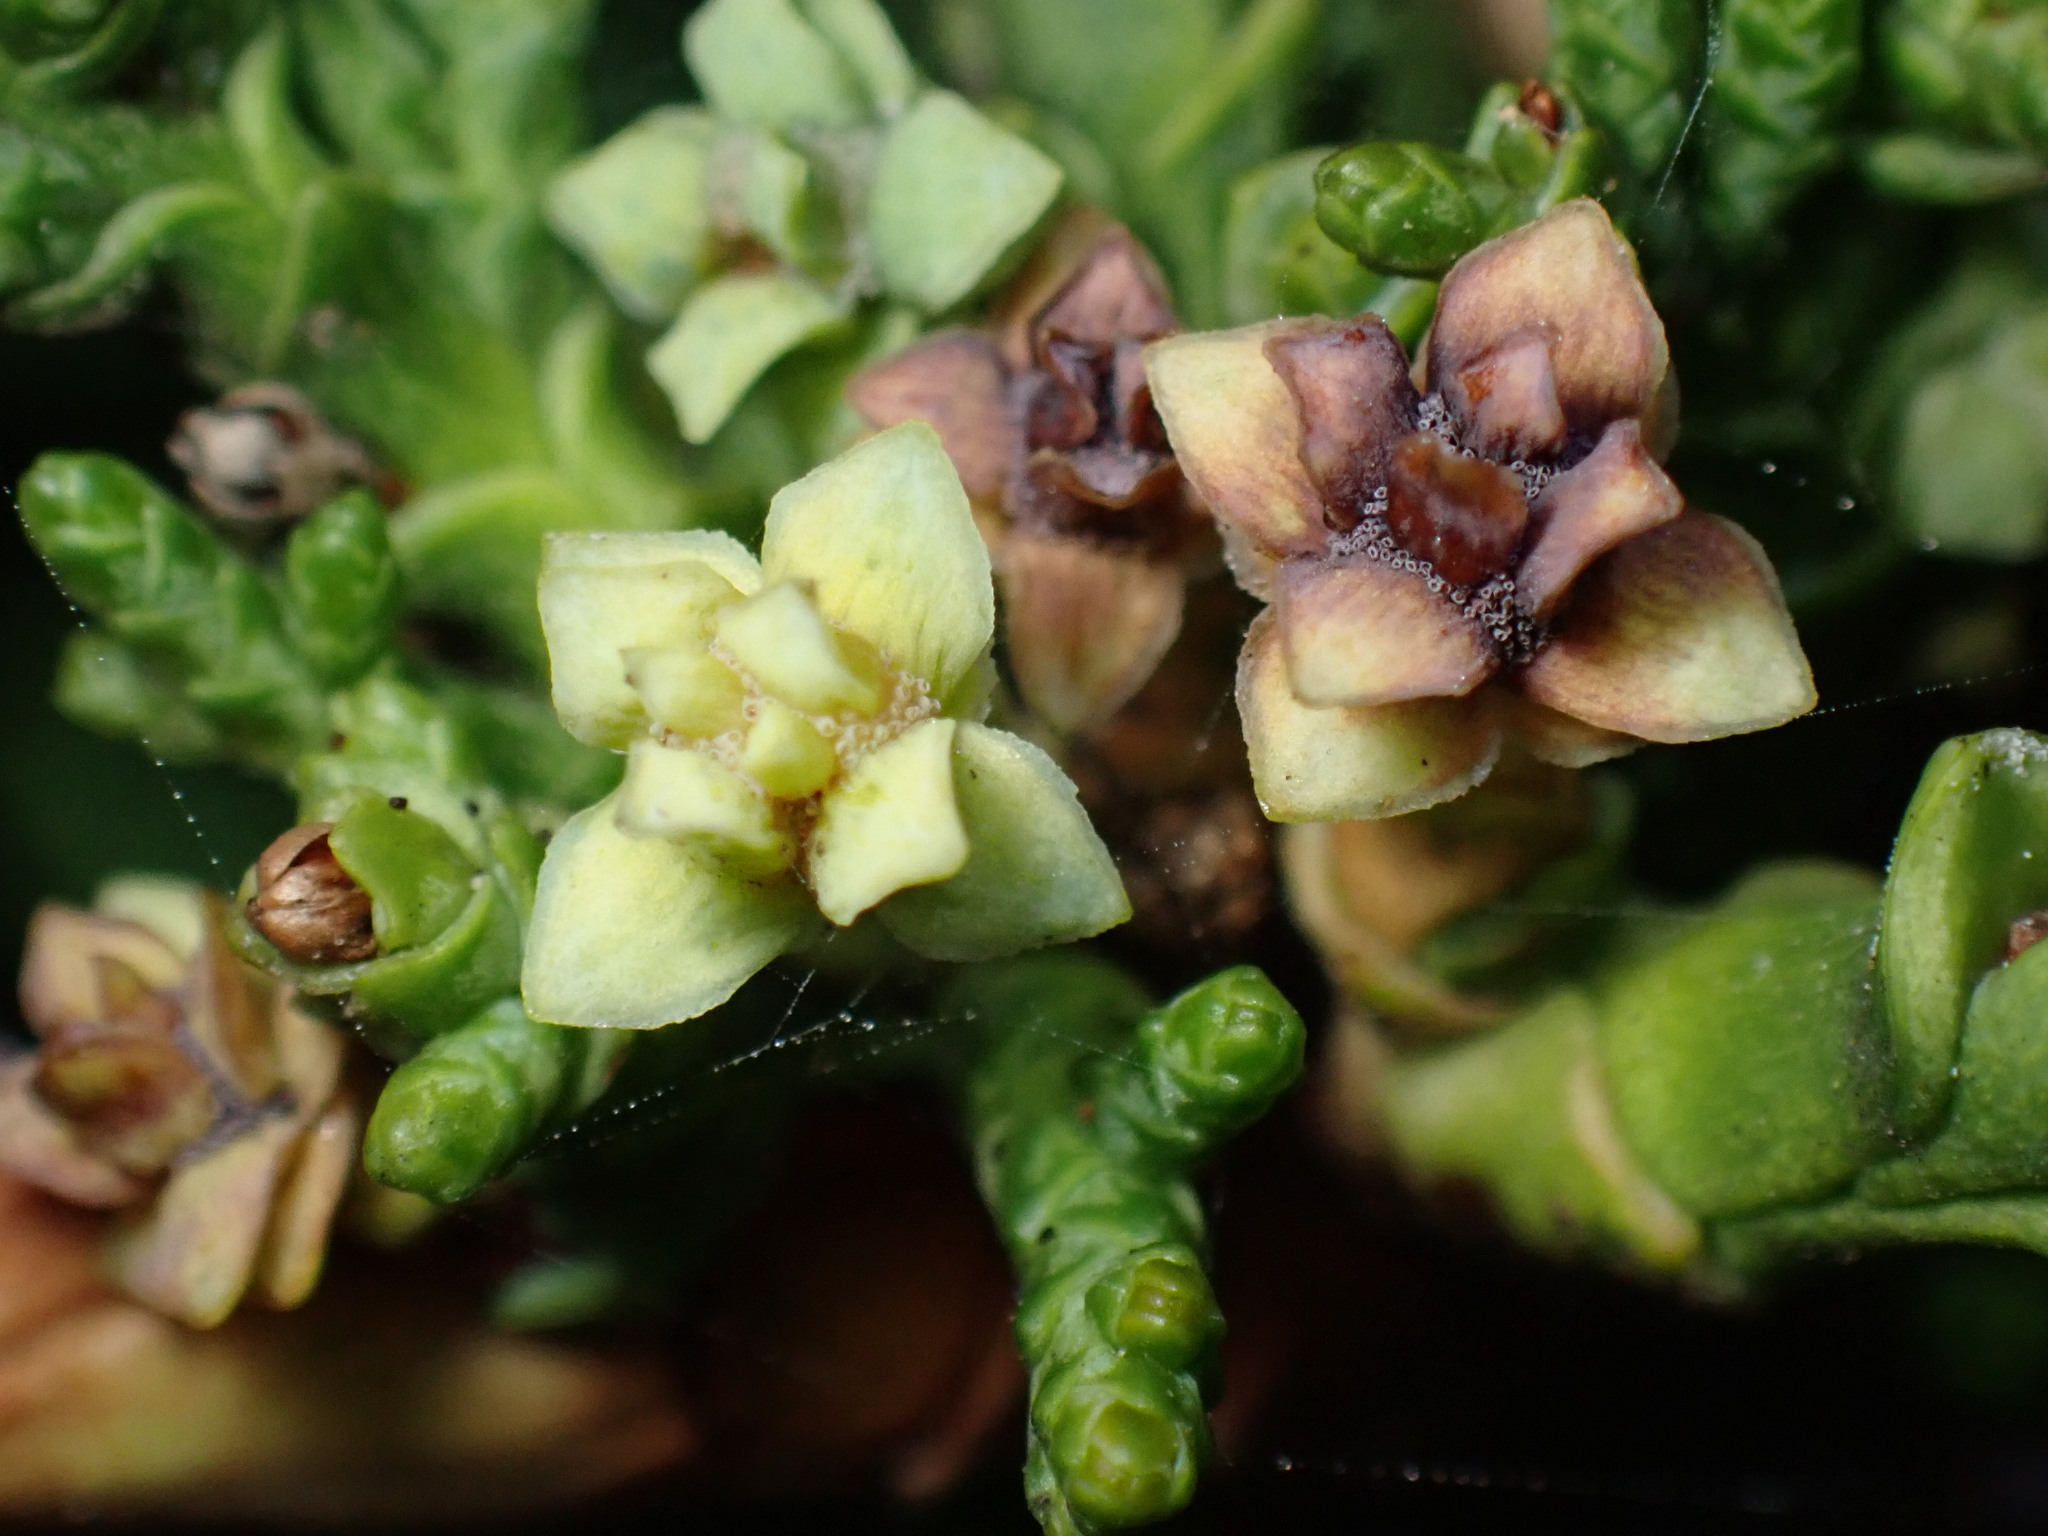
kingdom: Animalia
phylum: Arthropoda
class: Insecta
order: Diptera
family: Cecidomyiidae
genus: Chamaediplosis
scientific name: Chamaediplosis nootkatensis
